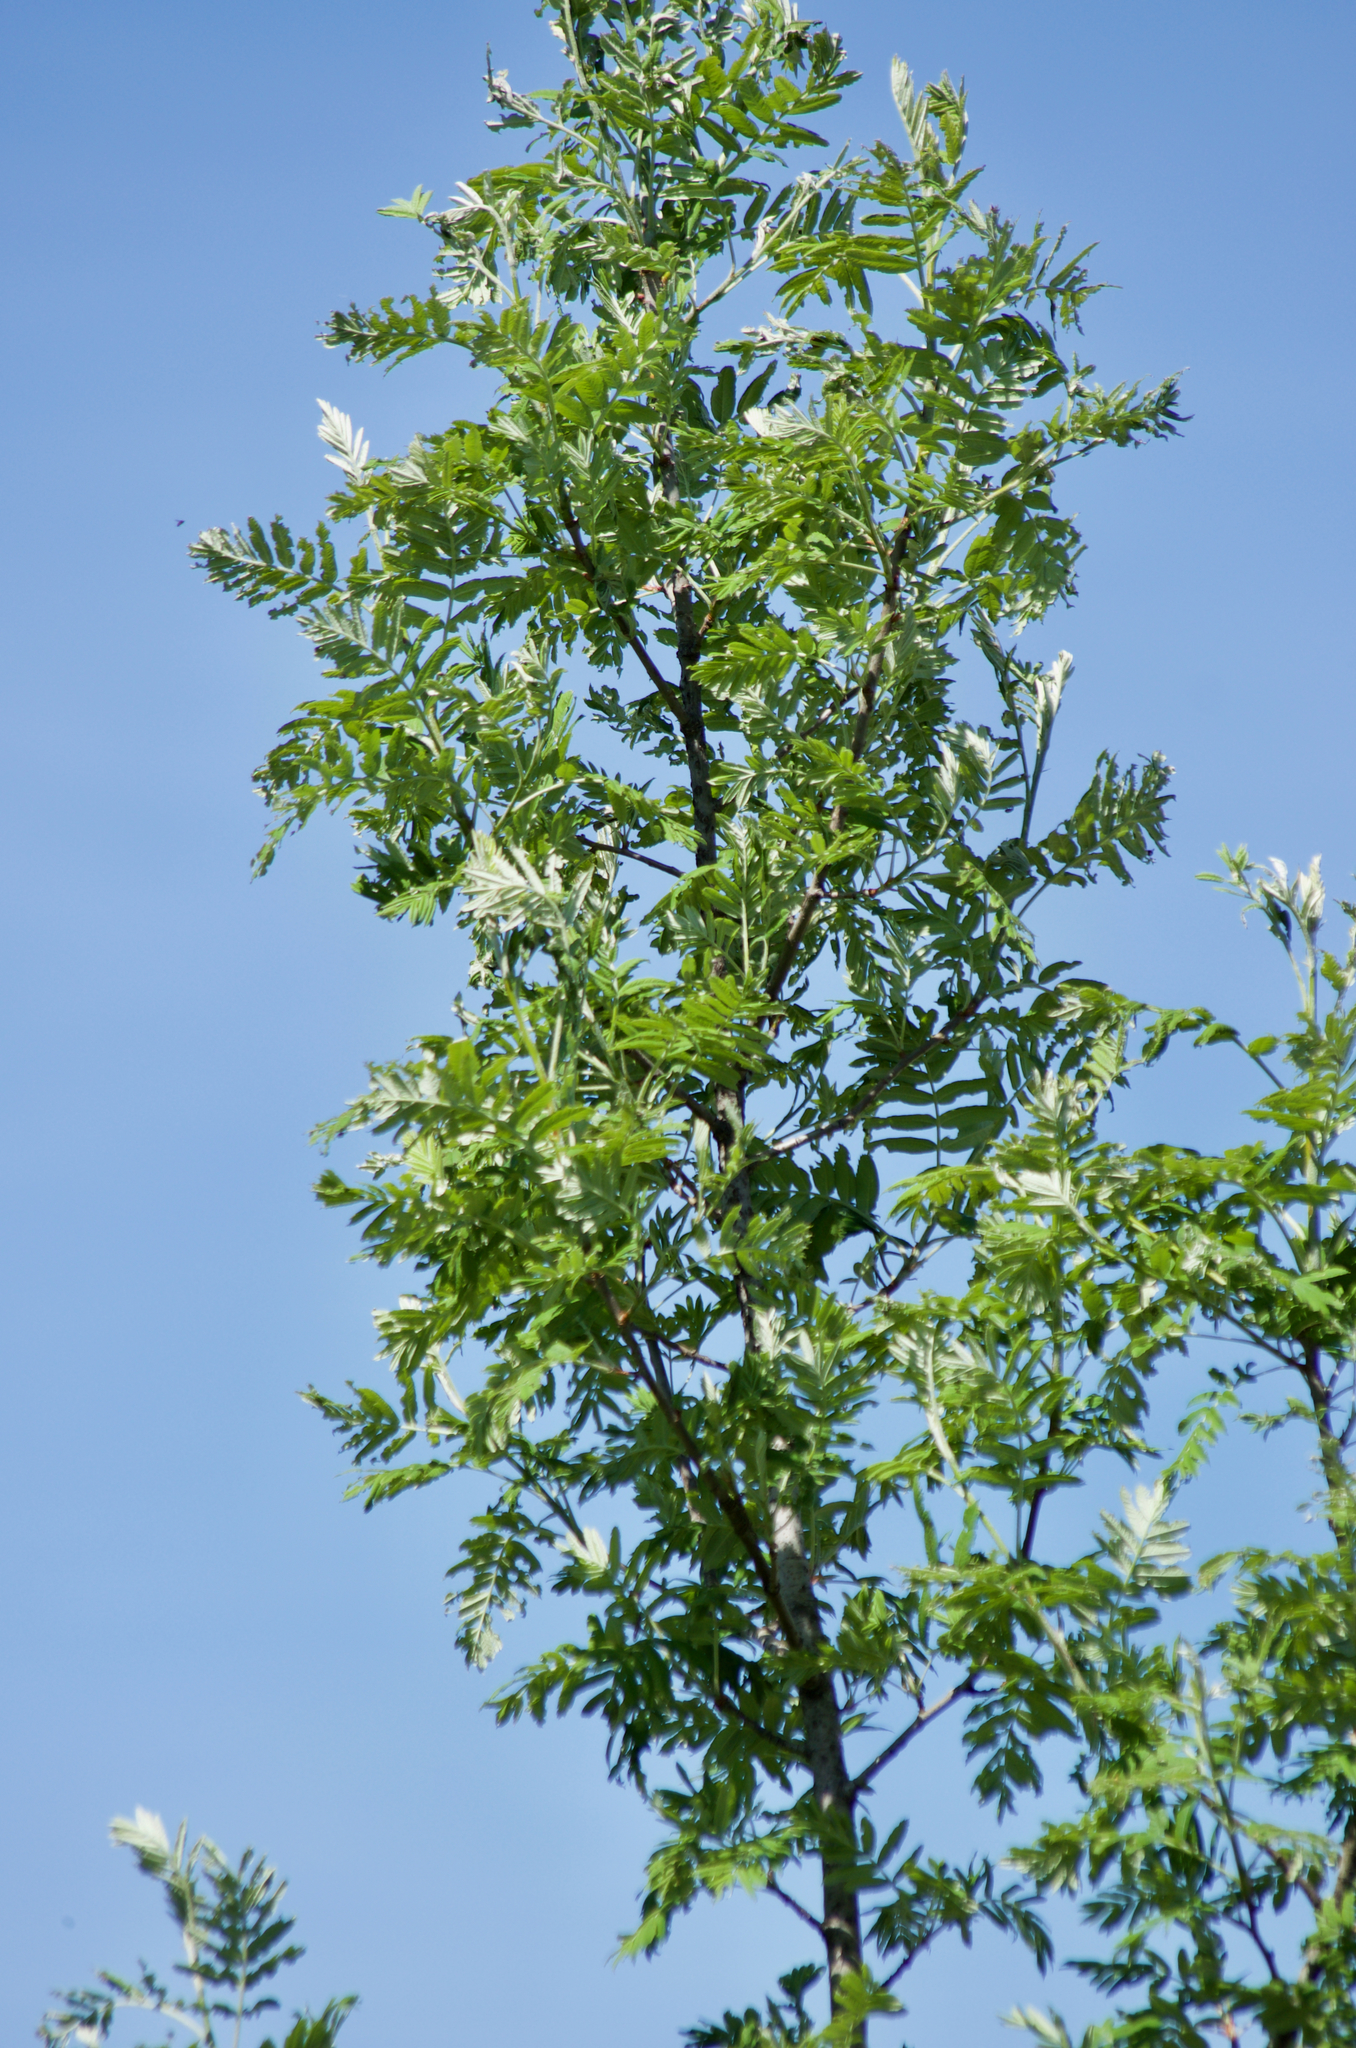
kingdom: Plantae
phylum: Tracheophyta
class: Magnoliopsida
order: Rosales
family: Rosaceae
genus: Sorbus
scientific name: Sorbus aucuparia
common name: Rowan
